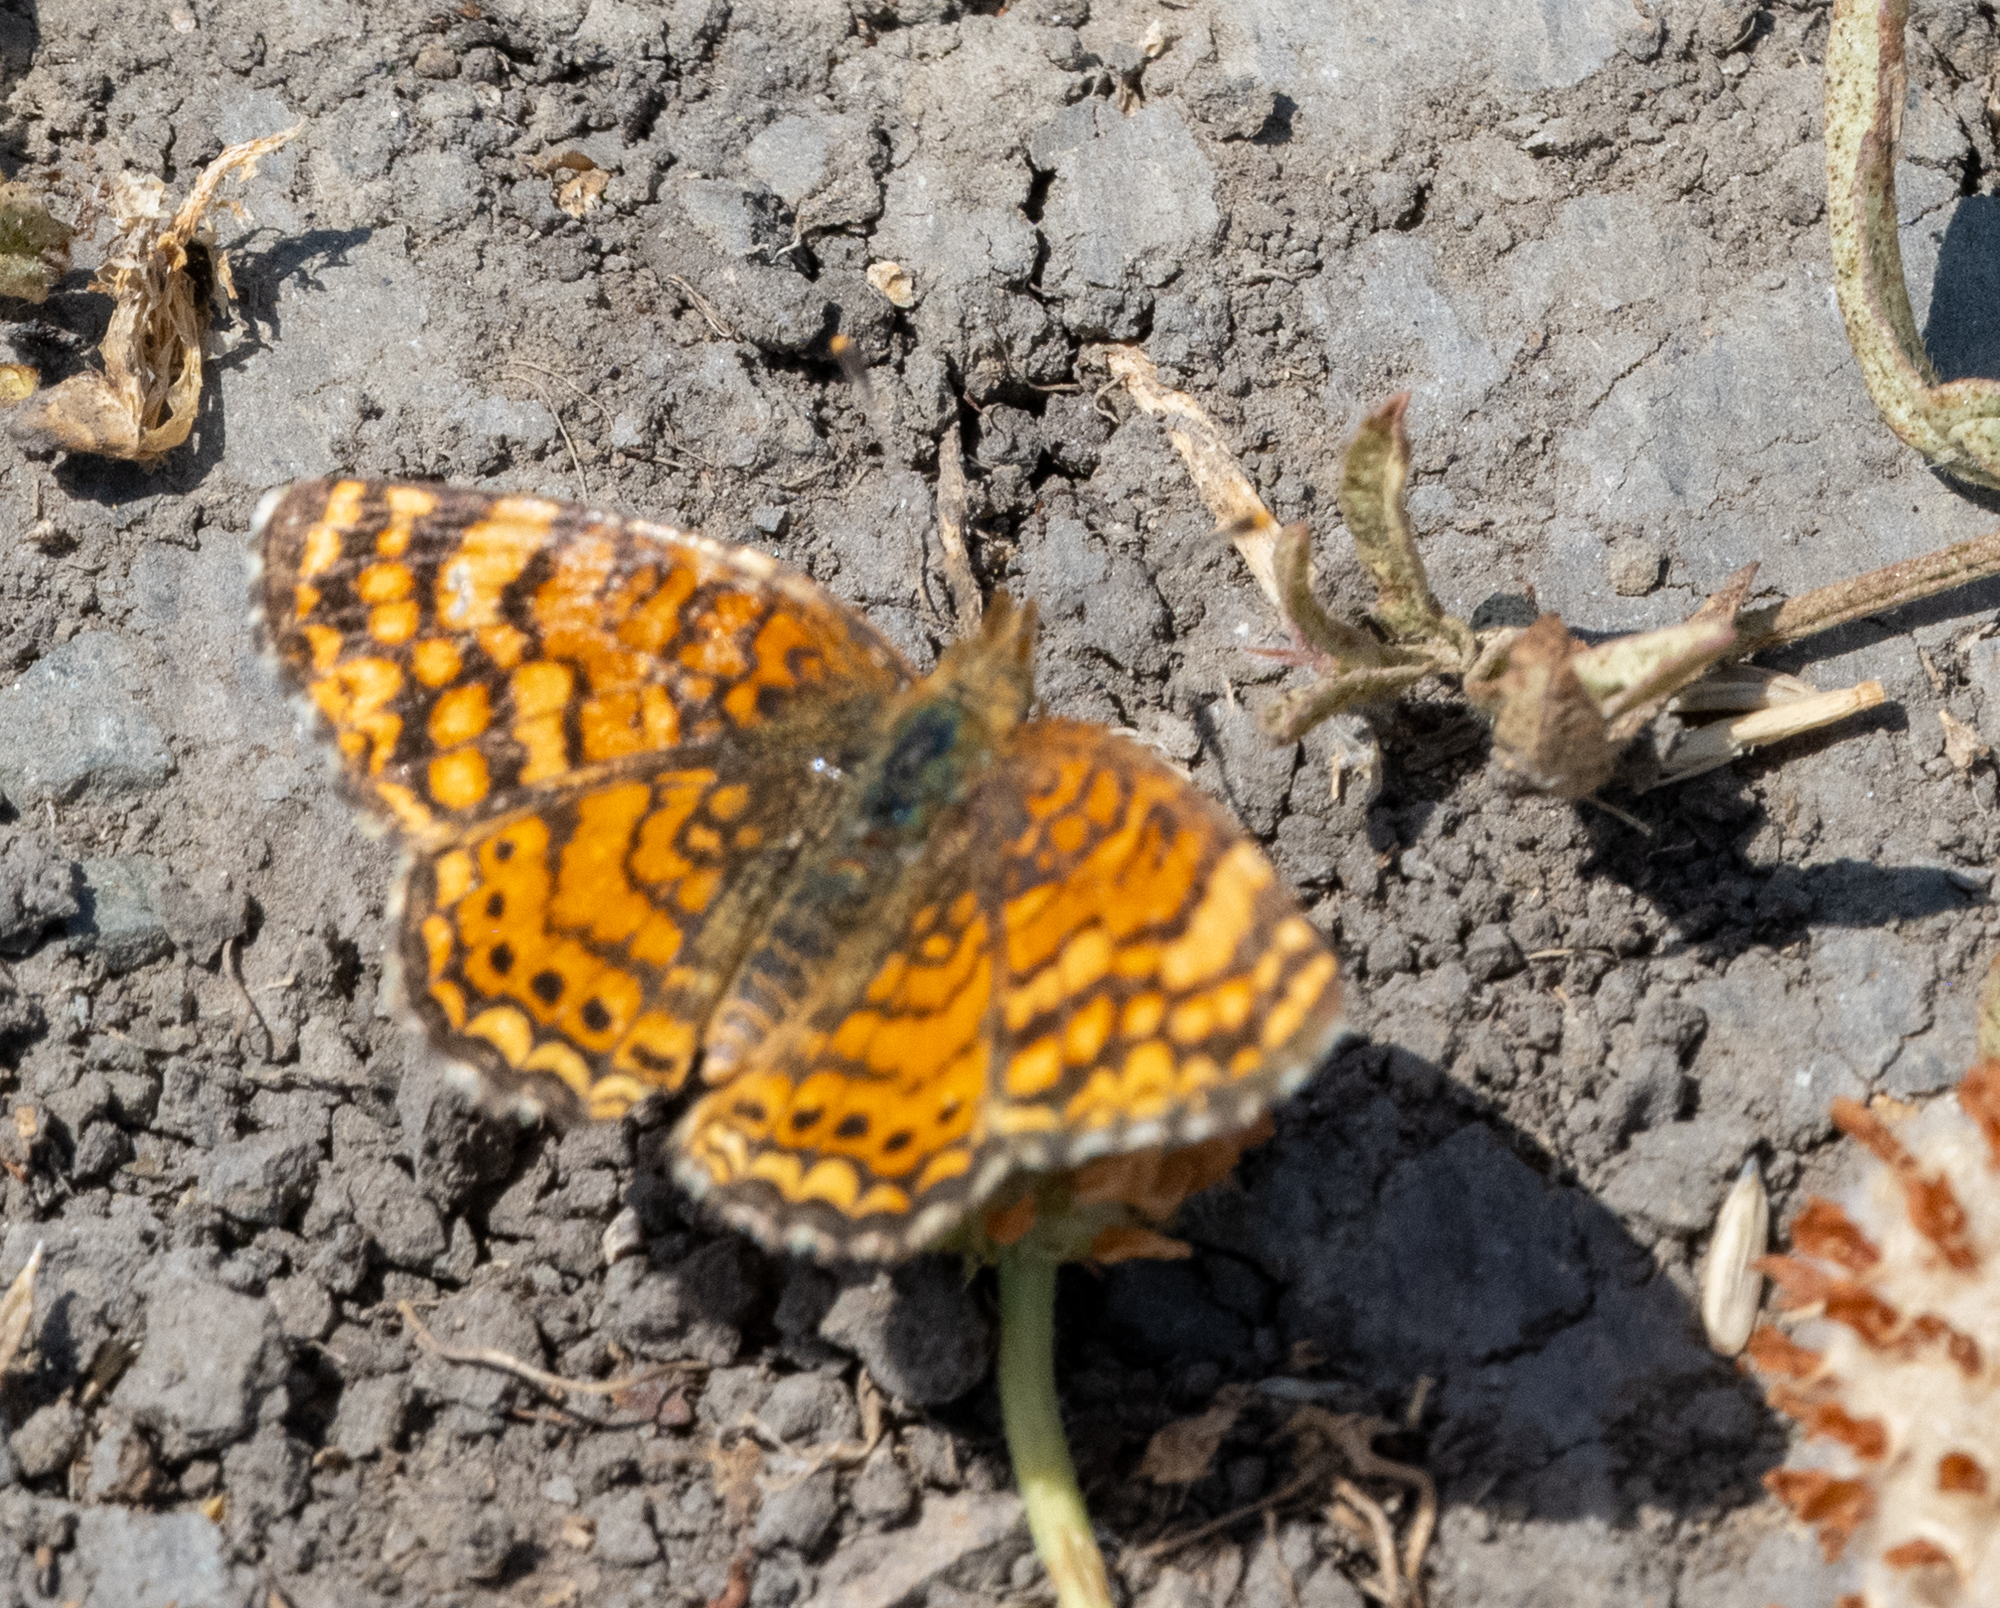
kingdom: Animalia
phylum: Arthropoda
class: Insecta
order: Lepidoptera
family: Nymphalidae
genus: Eresia
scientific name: Eresia aveyrona
